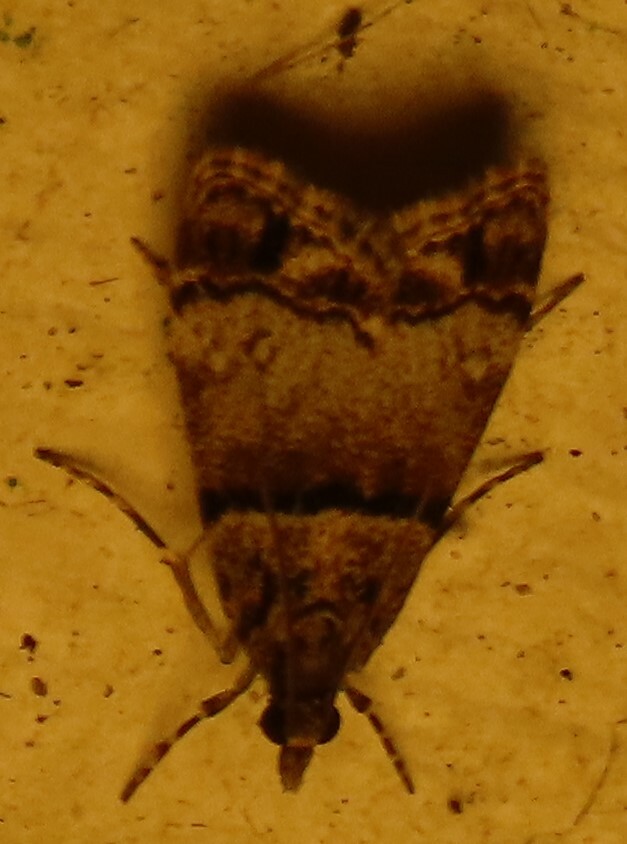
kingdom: Animalia
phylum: Arthropoda
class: Insecta
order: Lepidoptera
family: Crambidae
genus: Eudonia
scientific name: Eudonia choristis
